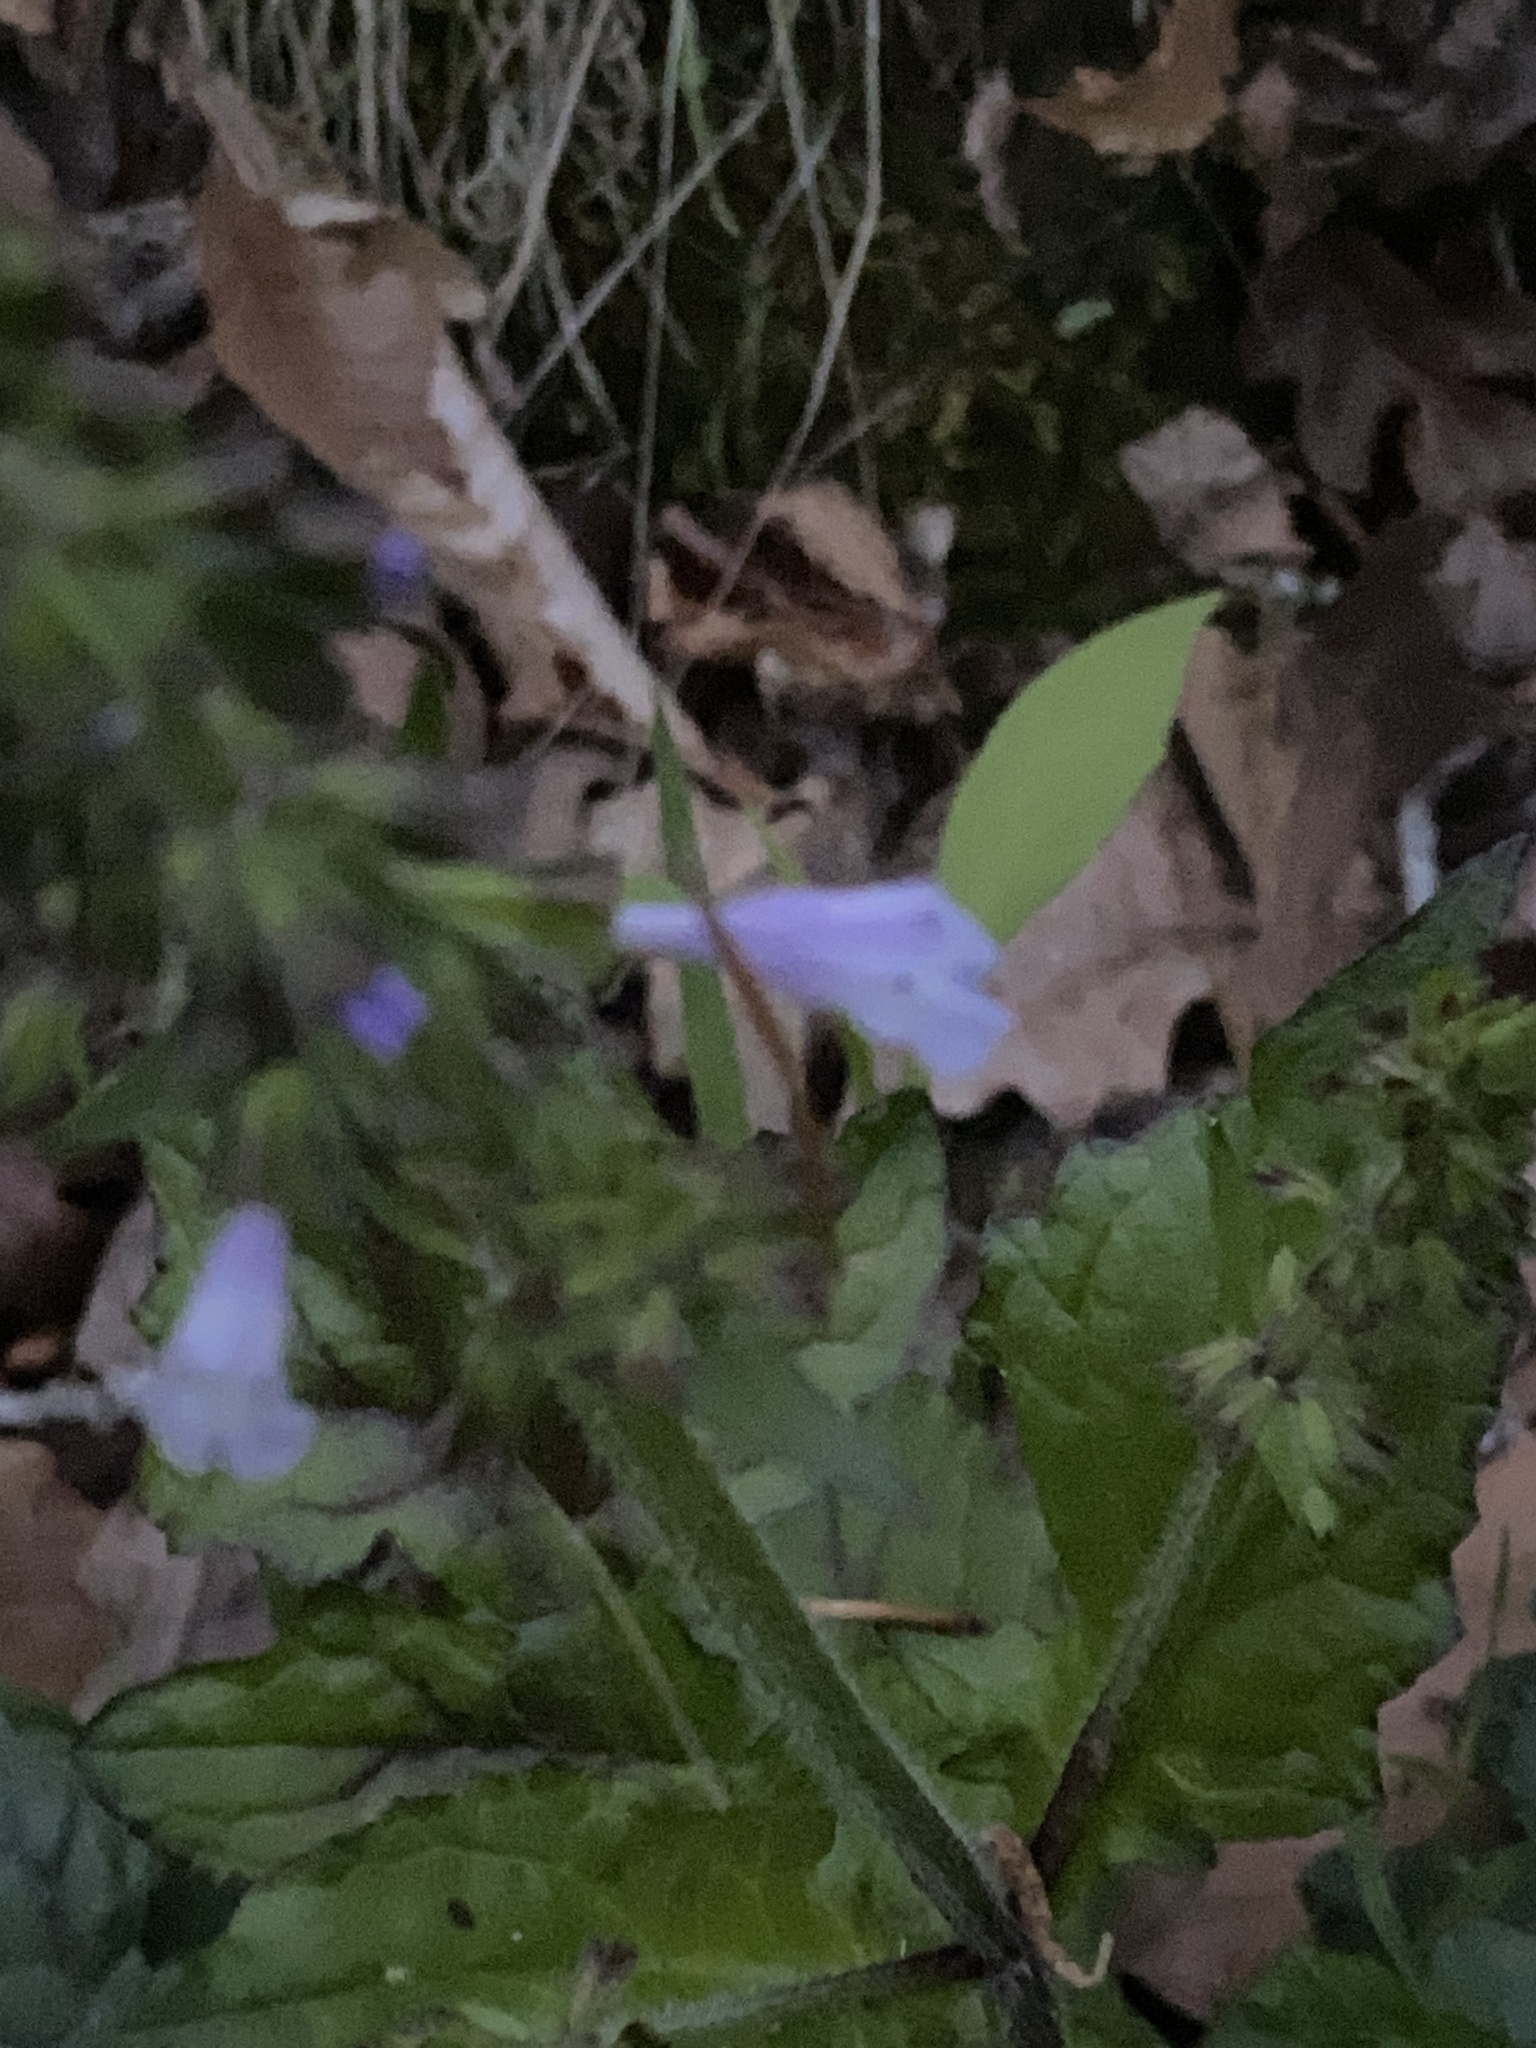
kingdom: Plantae
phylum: Tracheophyta
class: Magnoliopsida
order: Lamiales
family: Lamiaceae
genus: Salvia
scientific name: Salvia lyrata
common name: Cancerweed
